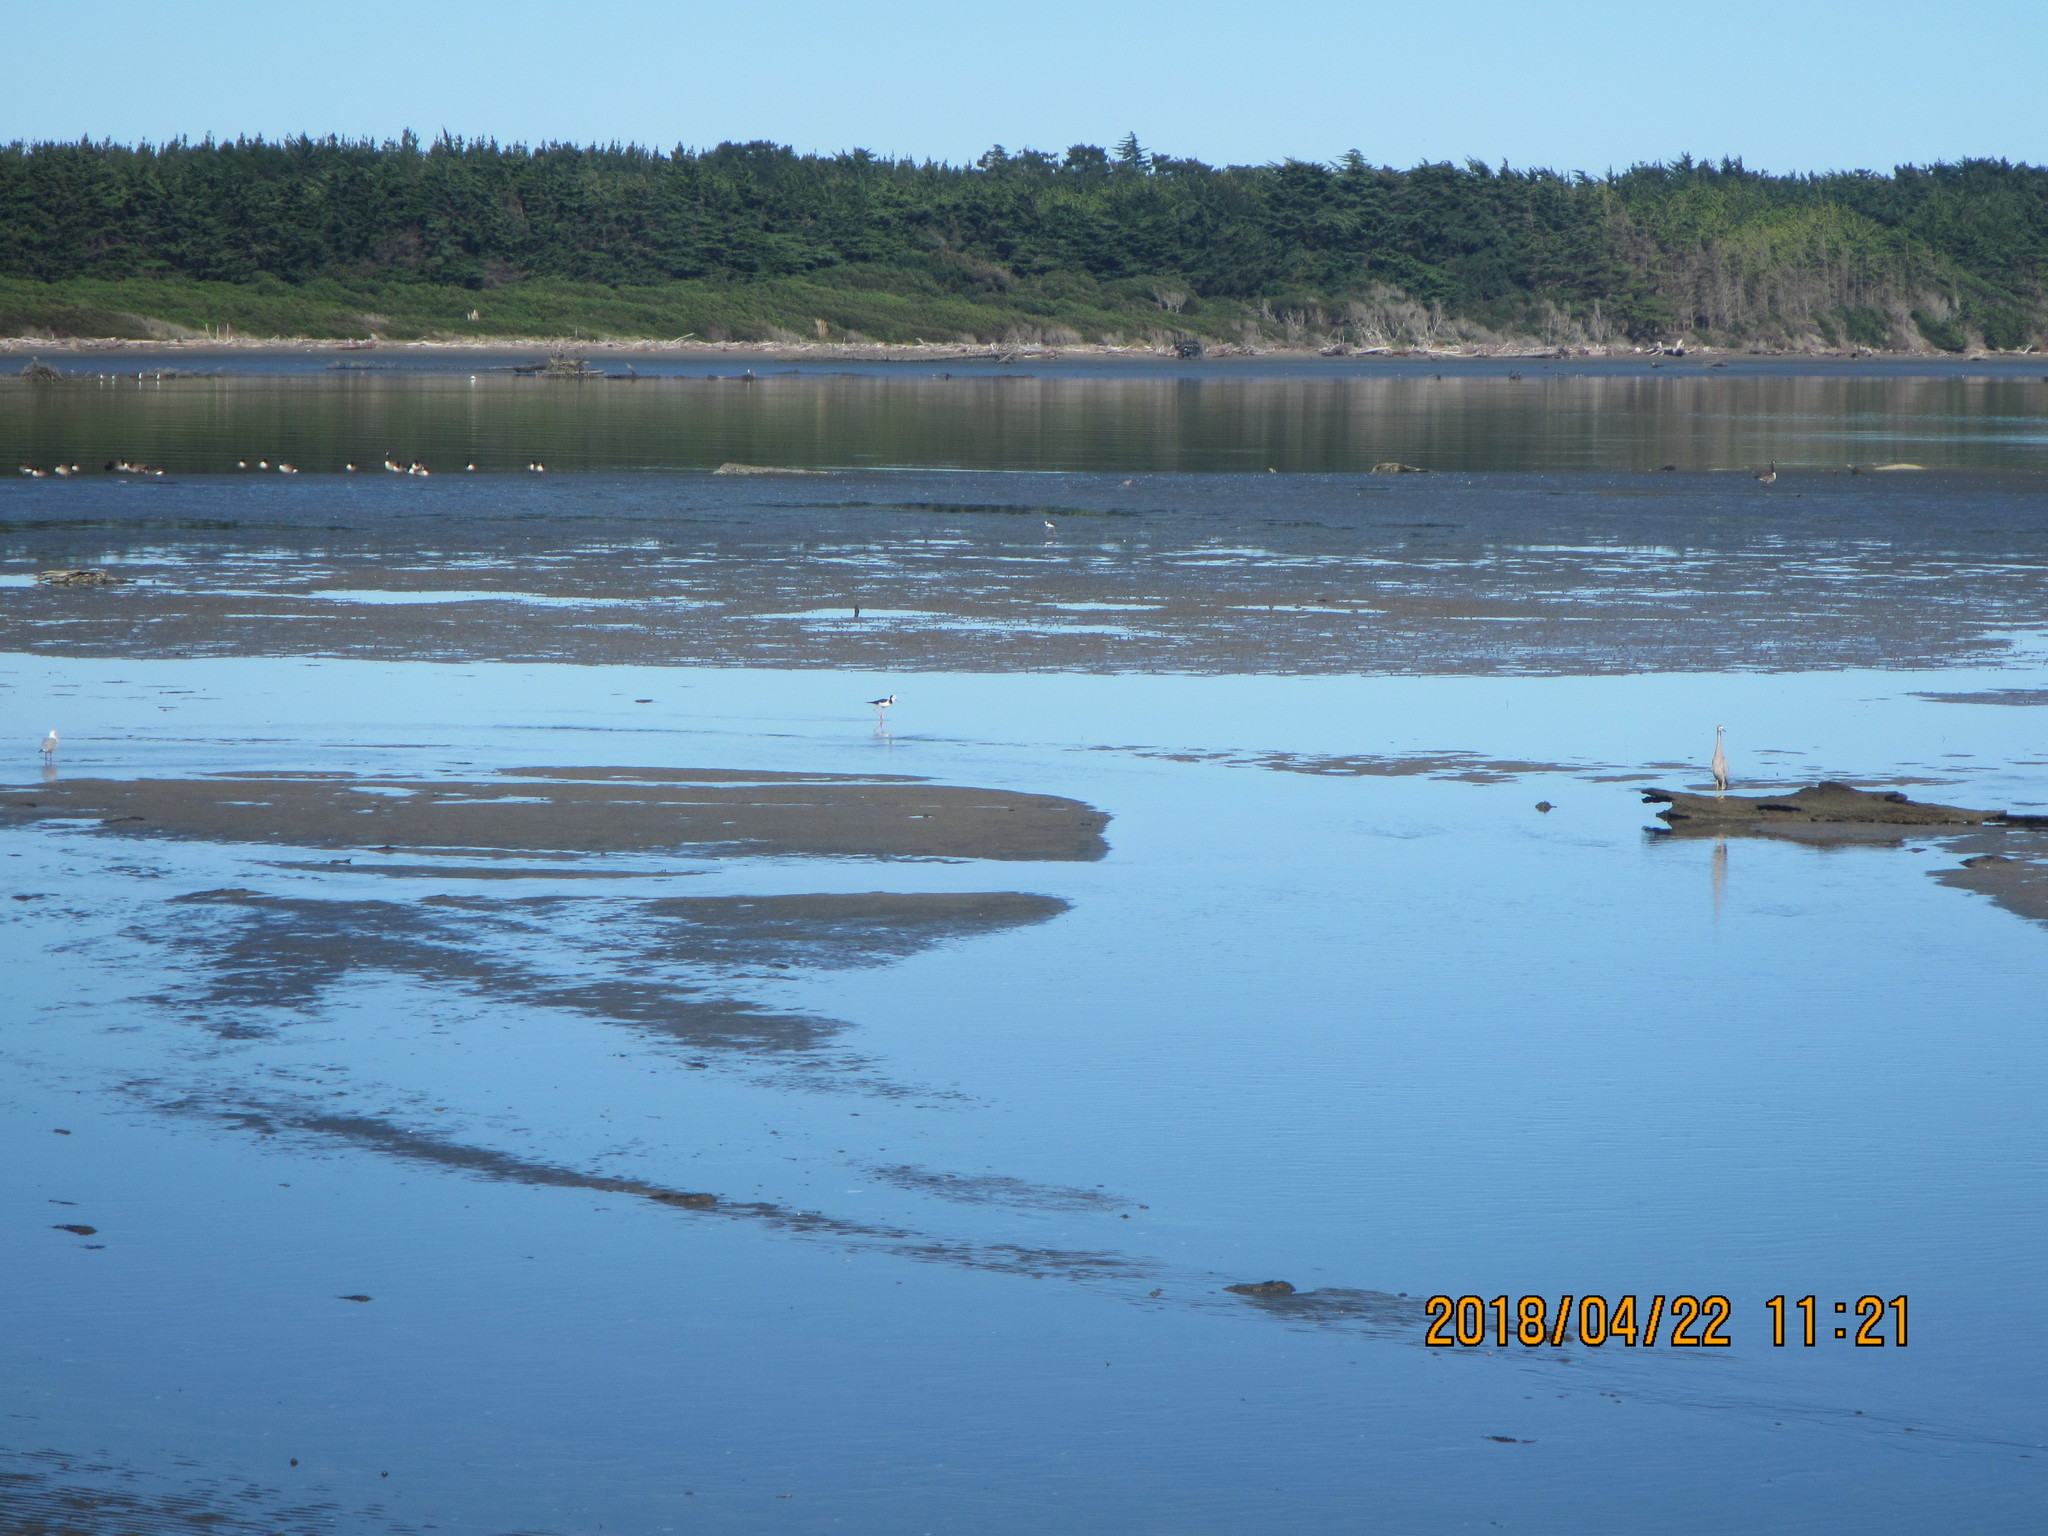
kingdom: Animalia
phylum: Chordata
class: Aves
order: Pelecaniformes
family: Ardeidae
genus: Egretta
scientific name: Egretta novaehollandiae
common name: White-faced heron
